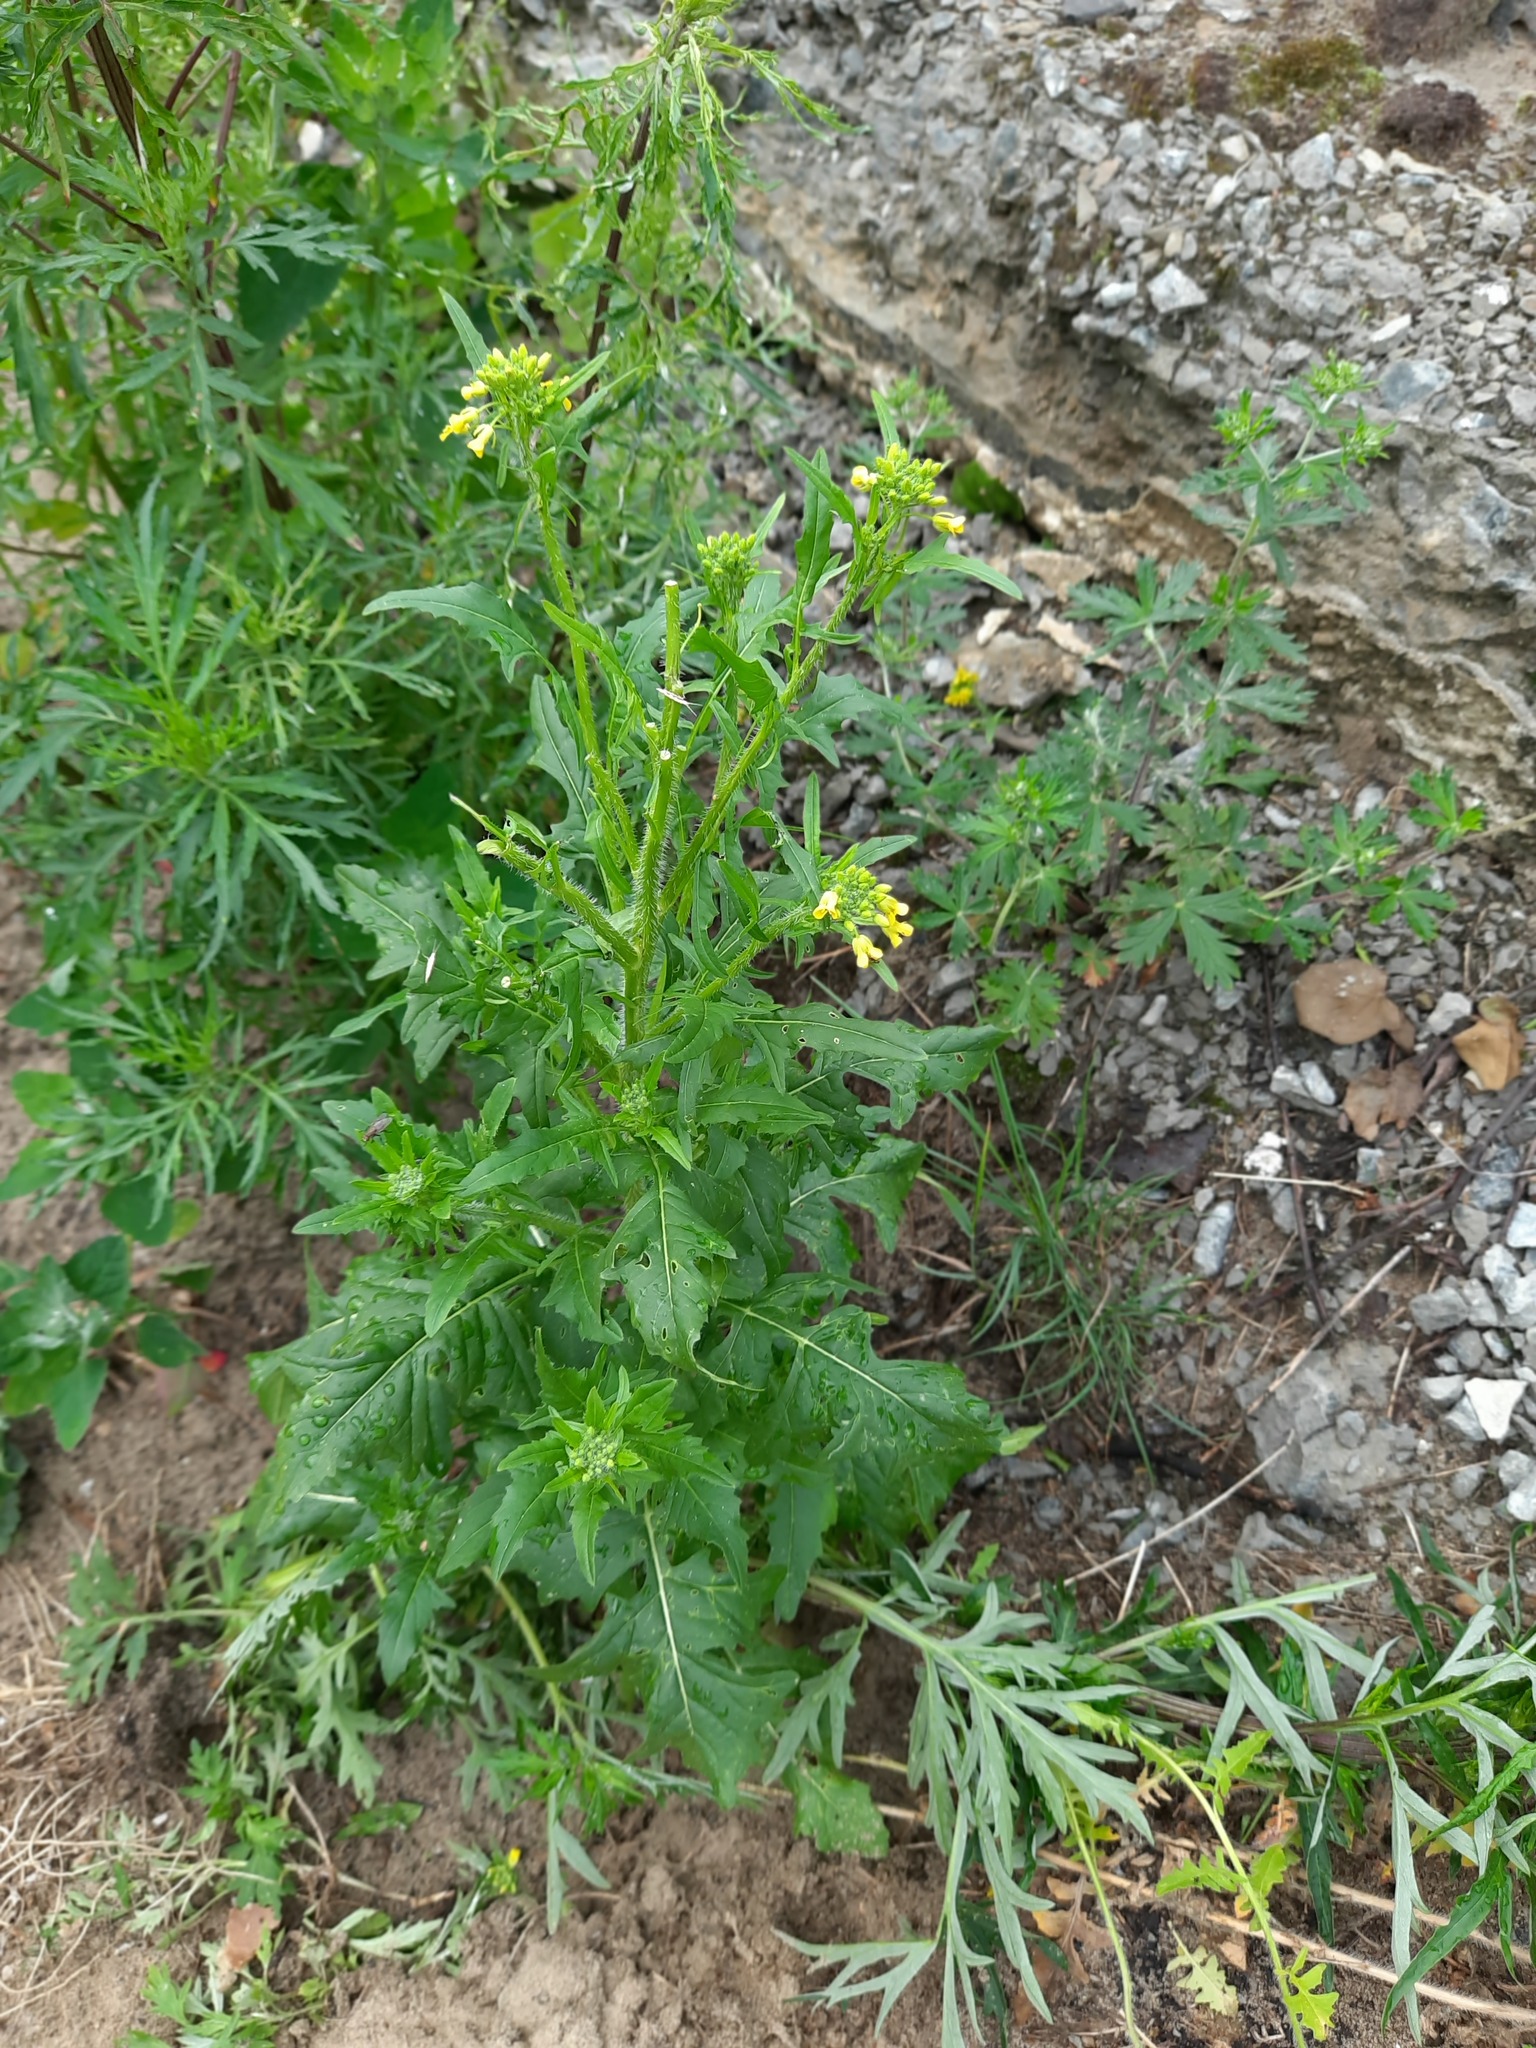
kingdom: Plantae
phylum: Tracheophyta
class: Magnoliopsida
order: Brassicales
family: Brassicaceae
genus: Sisymbrium
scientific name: Sisymbrium loeselii
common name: False london-rocket
